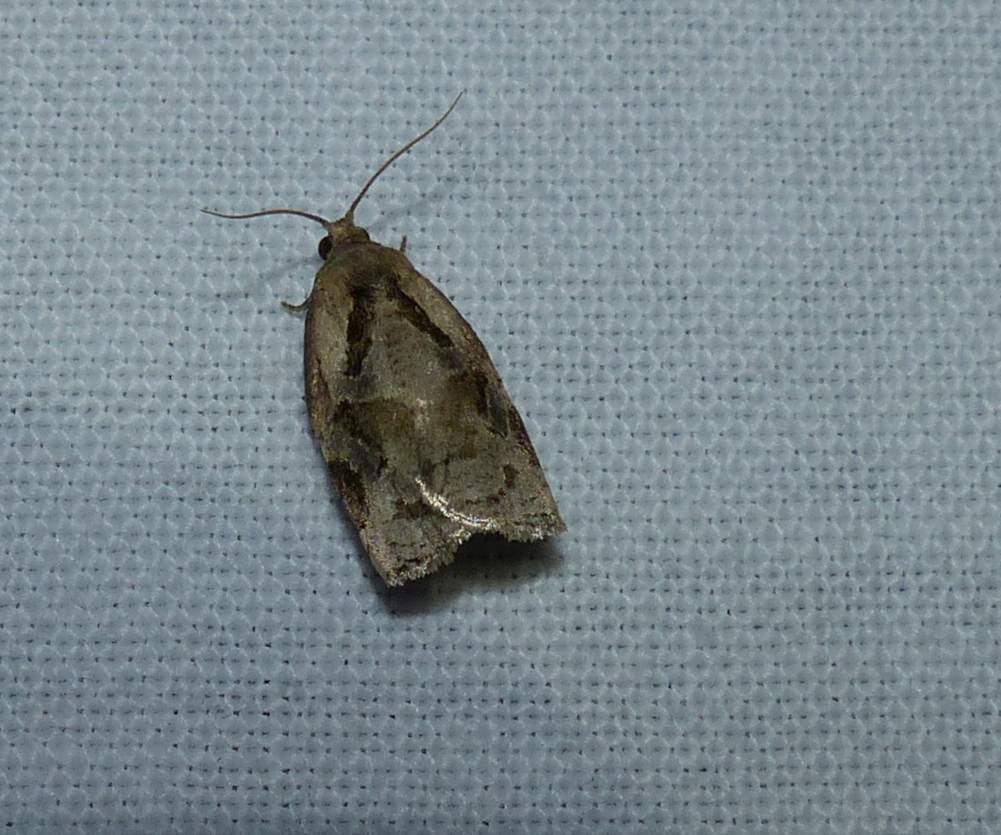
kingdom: Animalia
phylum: Arthropoda
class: Insecta
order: Lepidoptera
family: Tortricidae
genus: Archips
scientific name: Archips grisea
